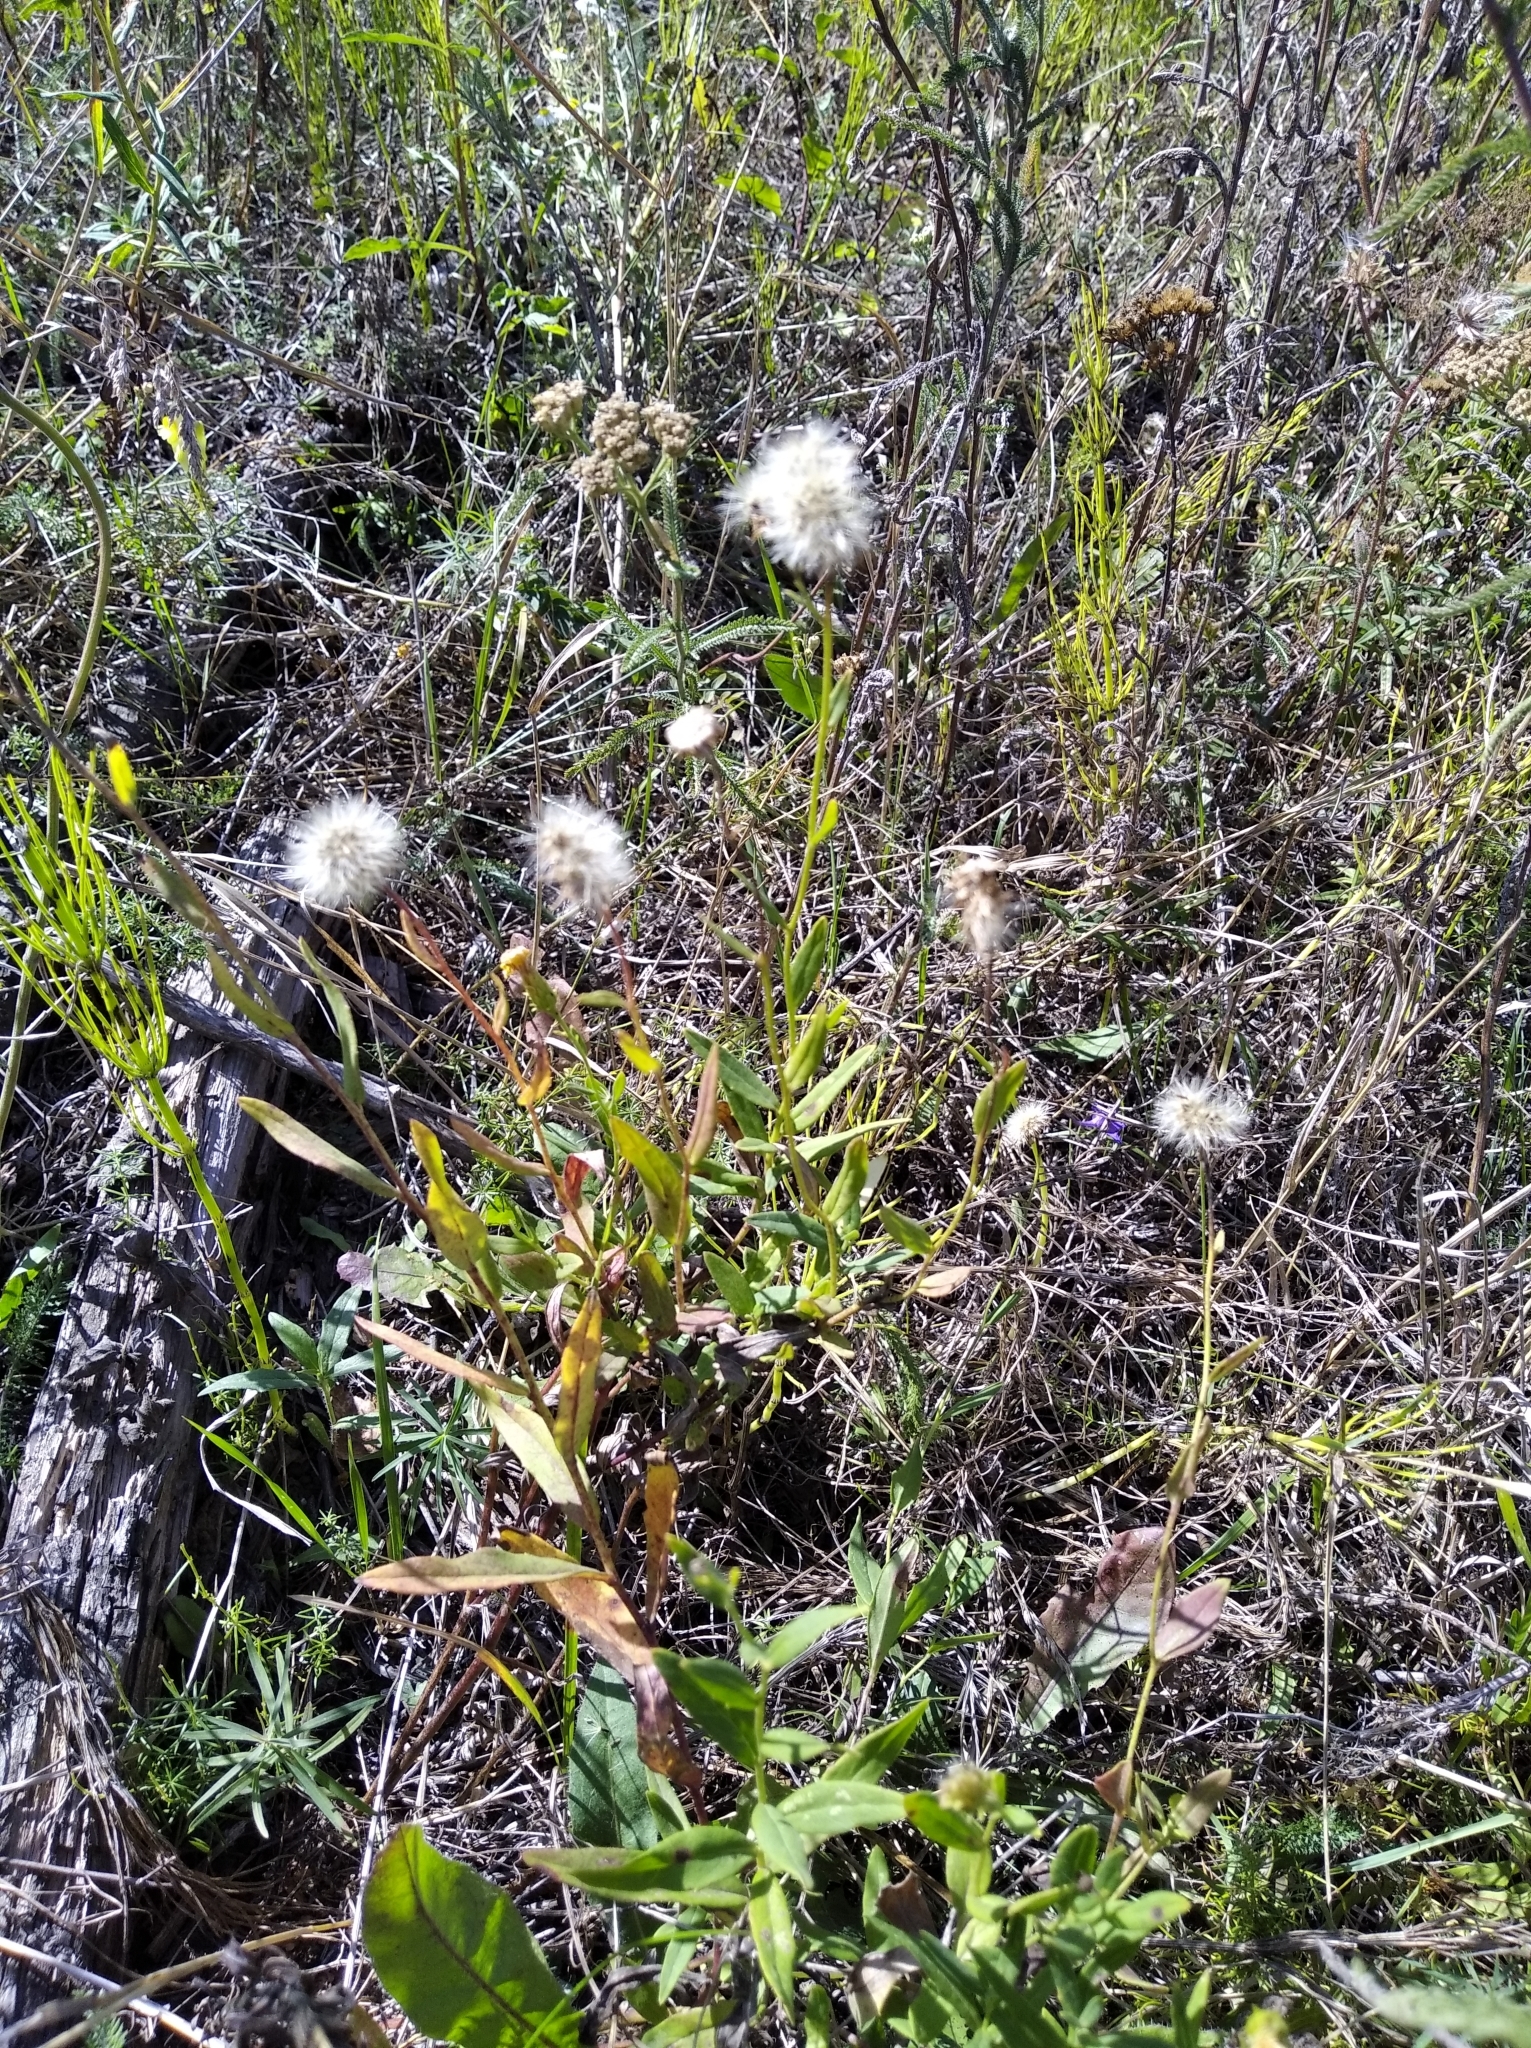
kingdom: Plantae
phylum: Tracheophyta
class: Magnoliopsida
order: Asterales
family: Asteraceae
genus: Hieracium
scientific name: Hieracium umbellatum
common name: Northern hawkweed
